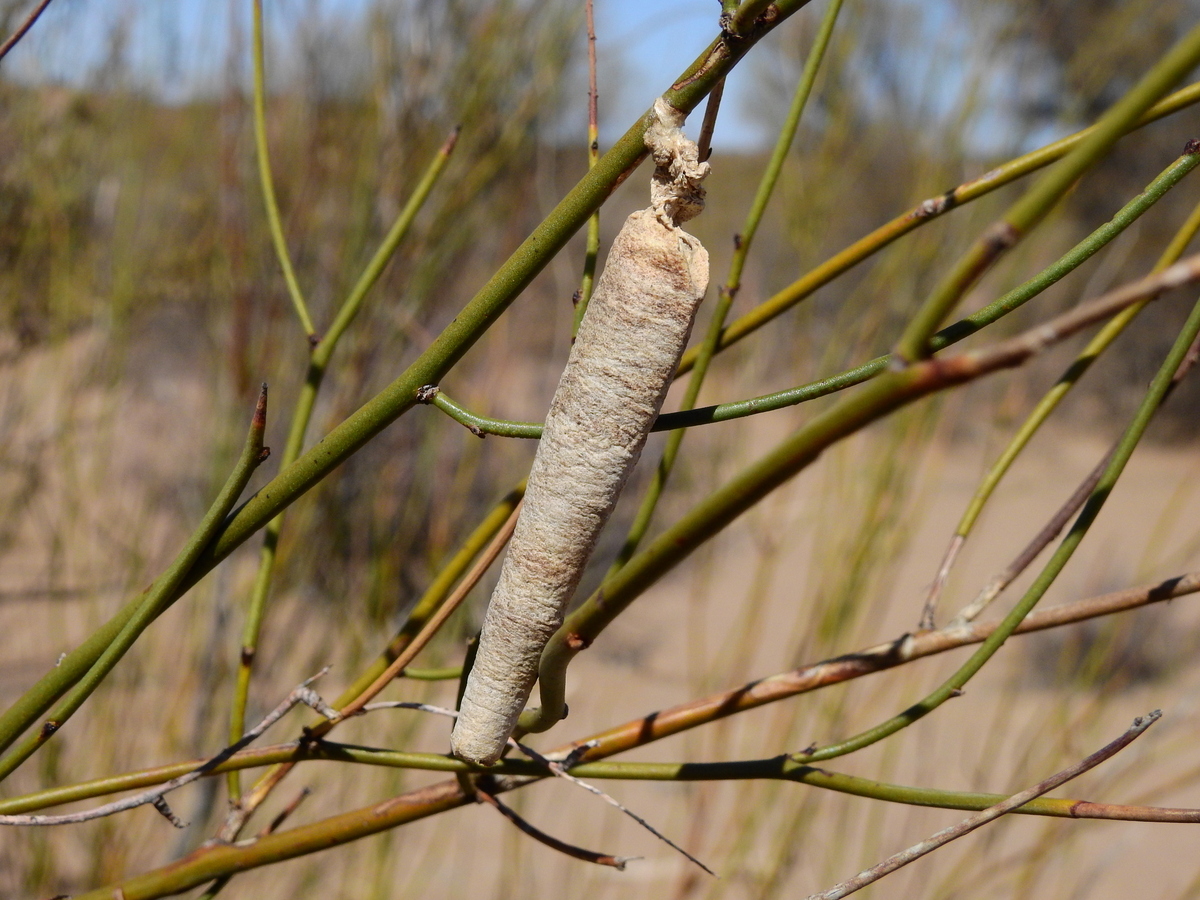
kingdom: Animalia
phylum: Arthropoda
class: Insecta
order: Lepidoptera
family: Psychidae
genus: Oiketicus
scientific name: Oiketicus geyeri
